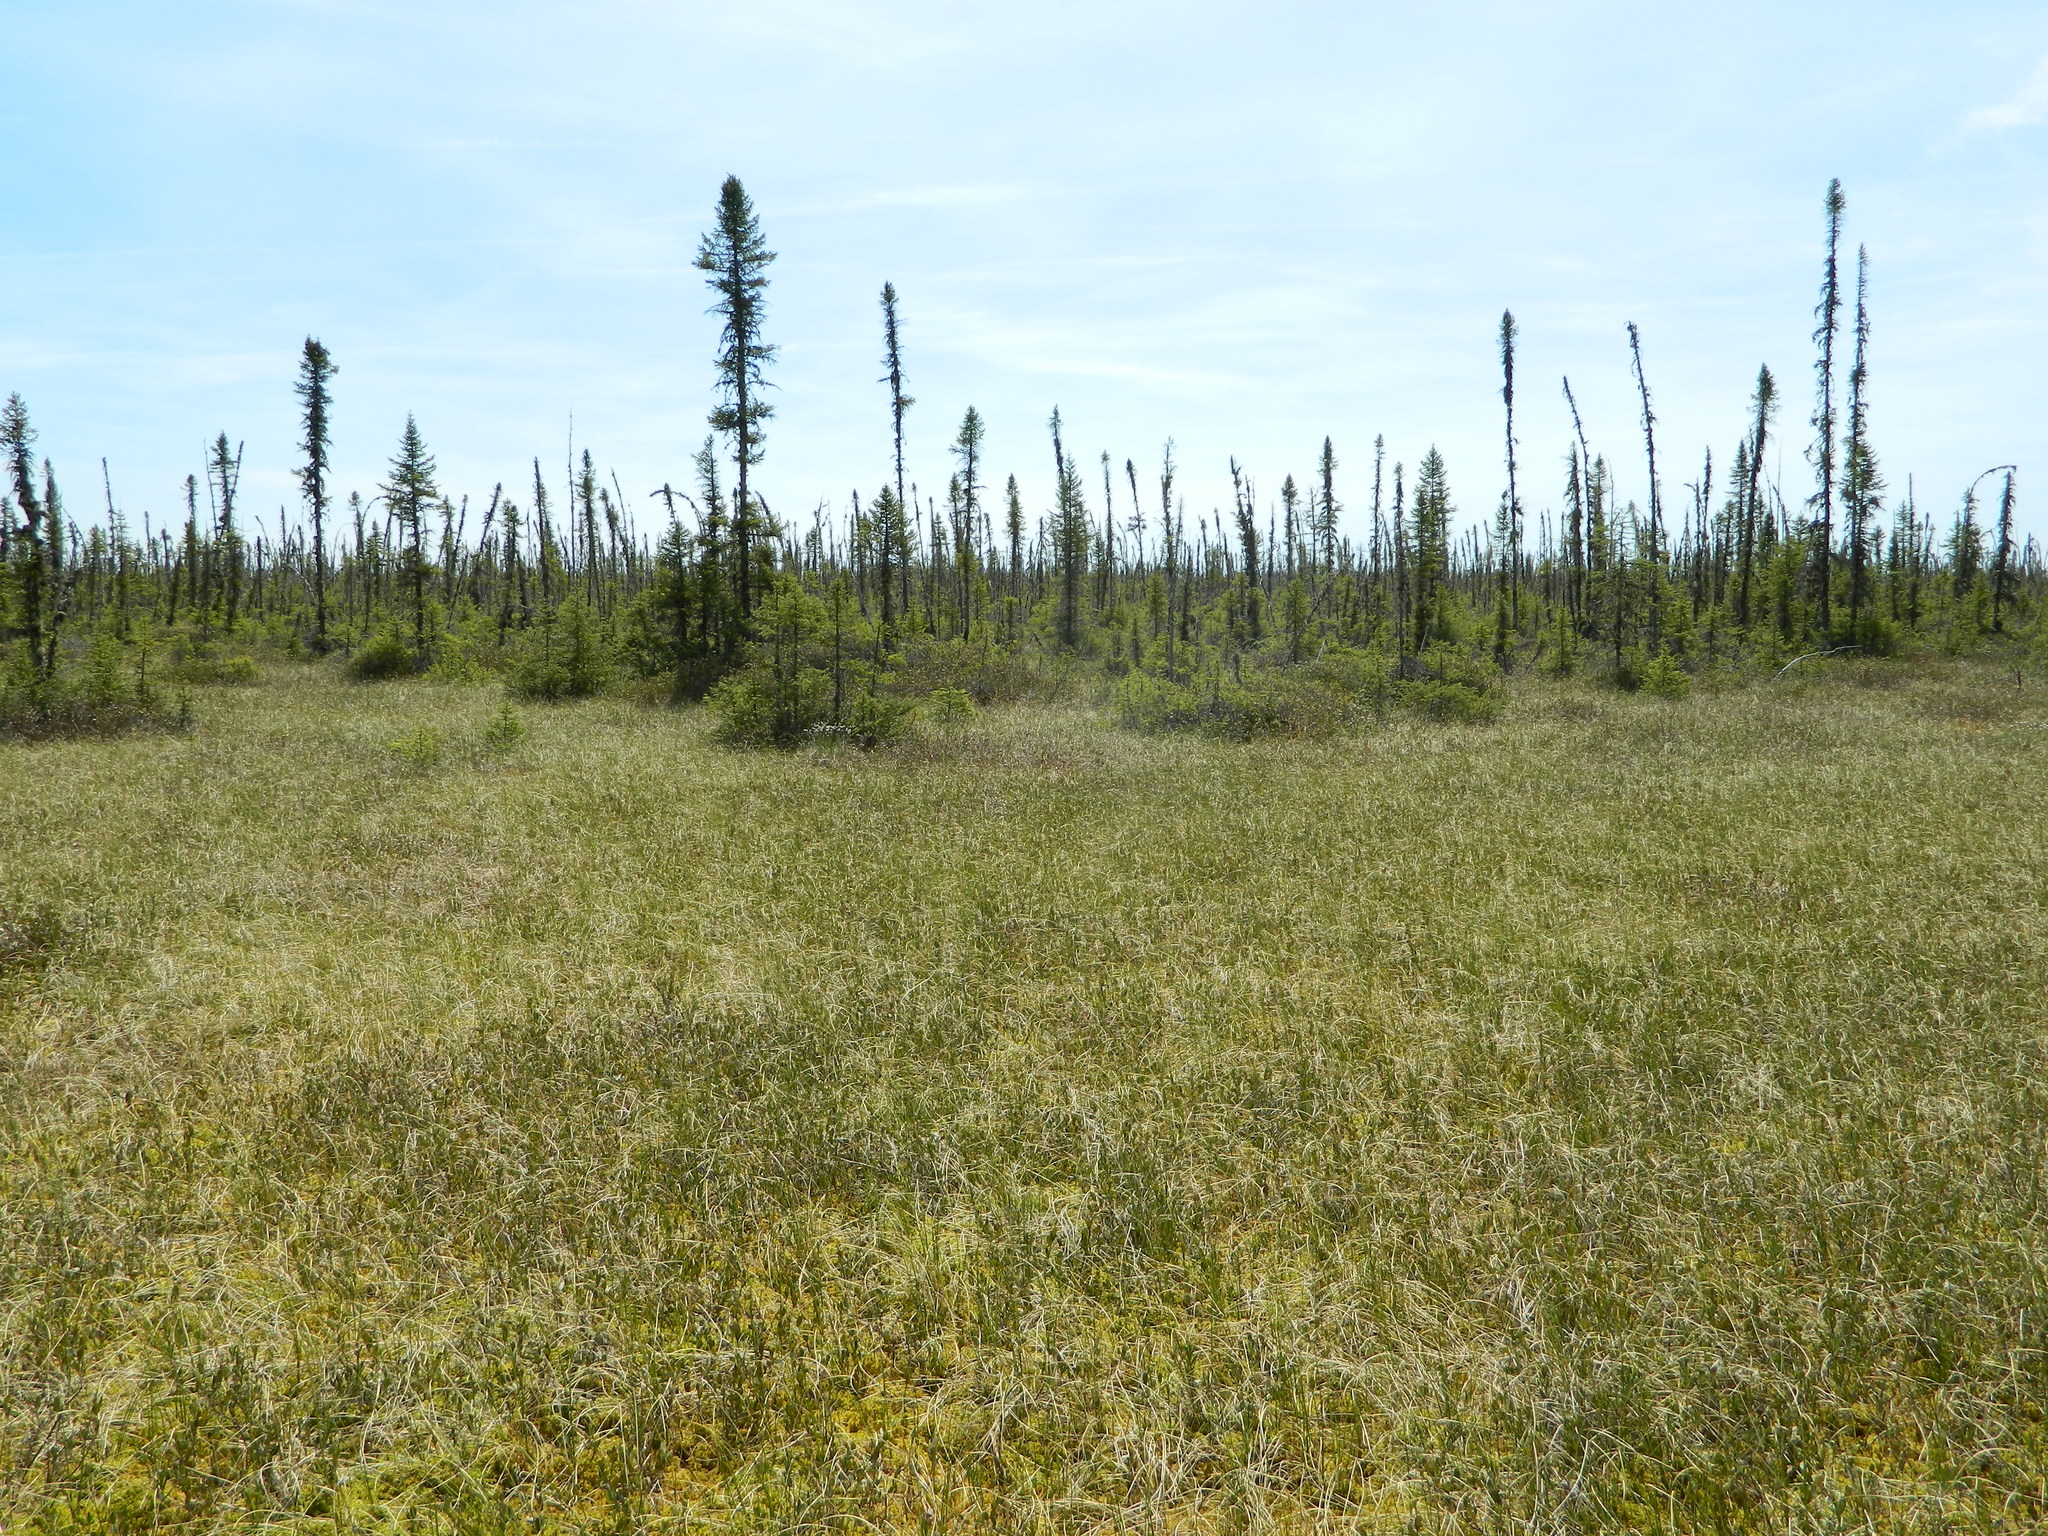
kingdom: Plantae
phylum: Tracheophyta
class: Pinopsida
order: Pinales
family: Pinaceae
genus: Picea
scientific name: Picea mariana
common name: Black spruce
